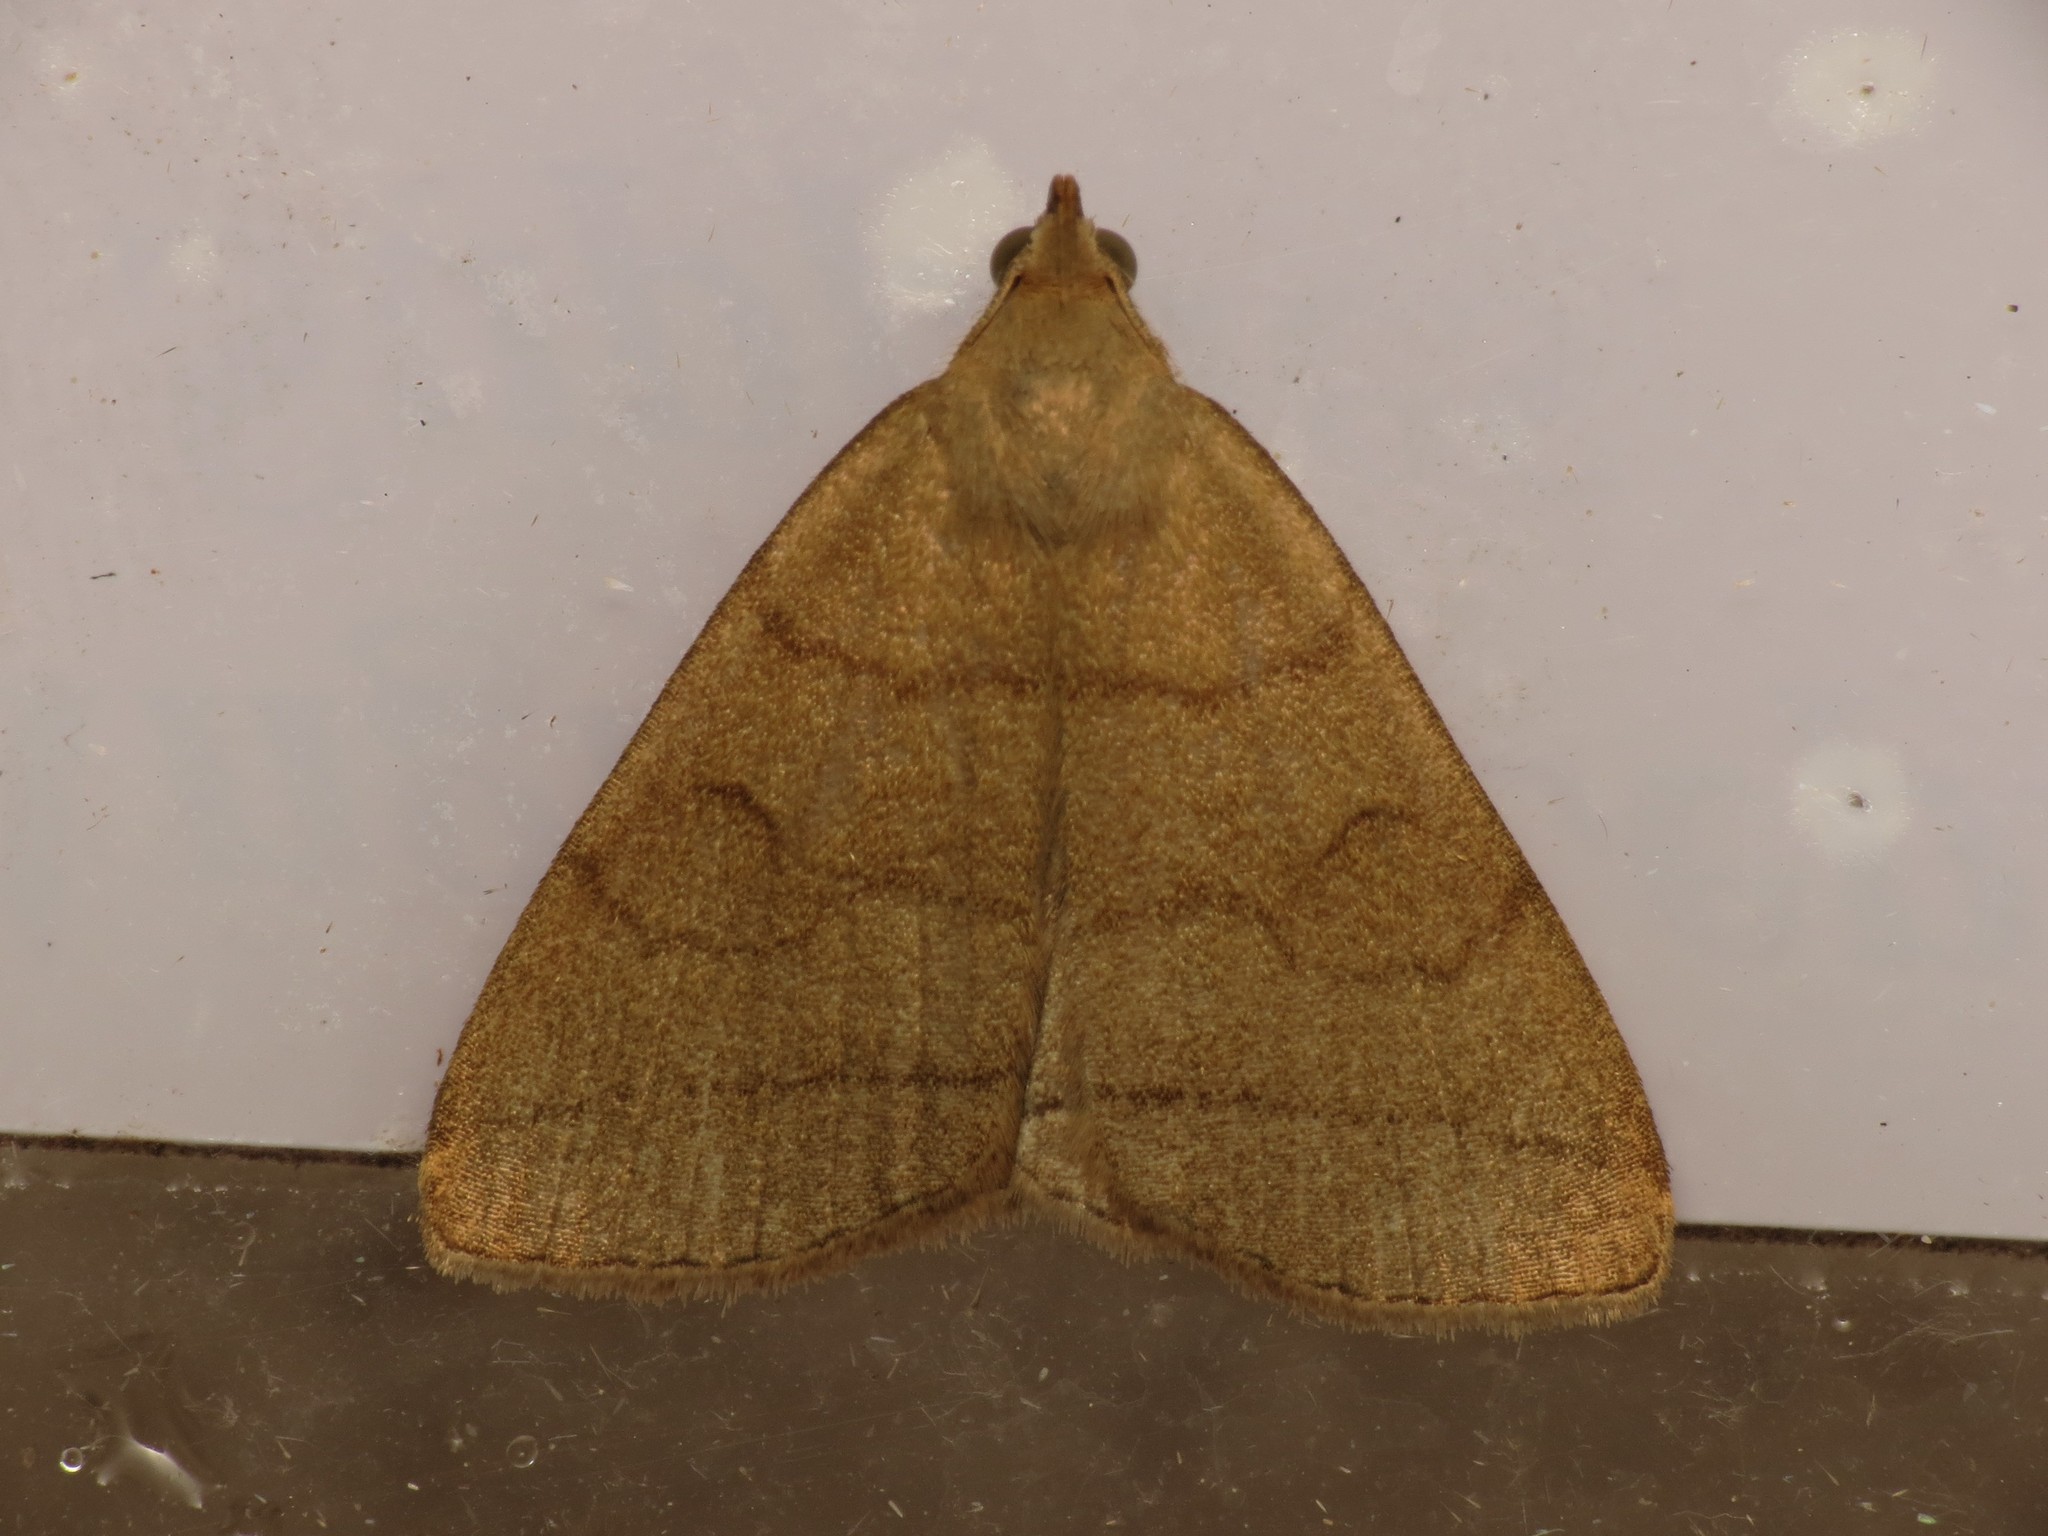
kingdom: Animalia
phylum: Arthropoda
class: Insecta
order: Lepidoptera
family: Erebidae
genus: Herminia
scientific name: Herminia tarsipennalis
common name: Fan-foot
